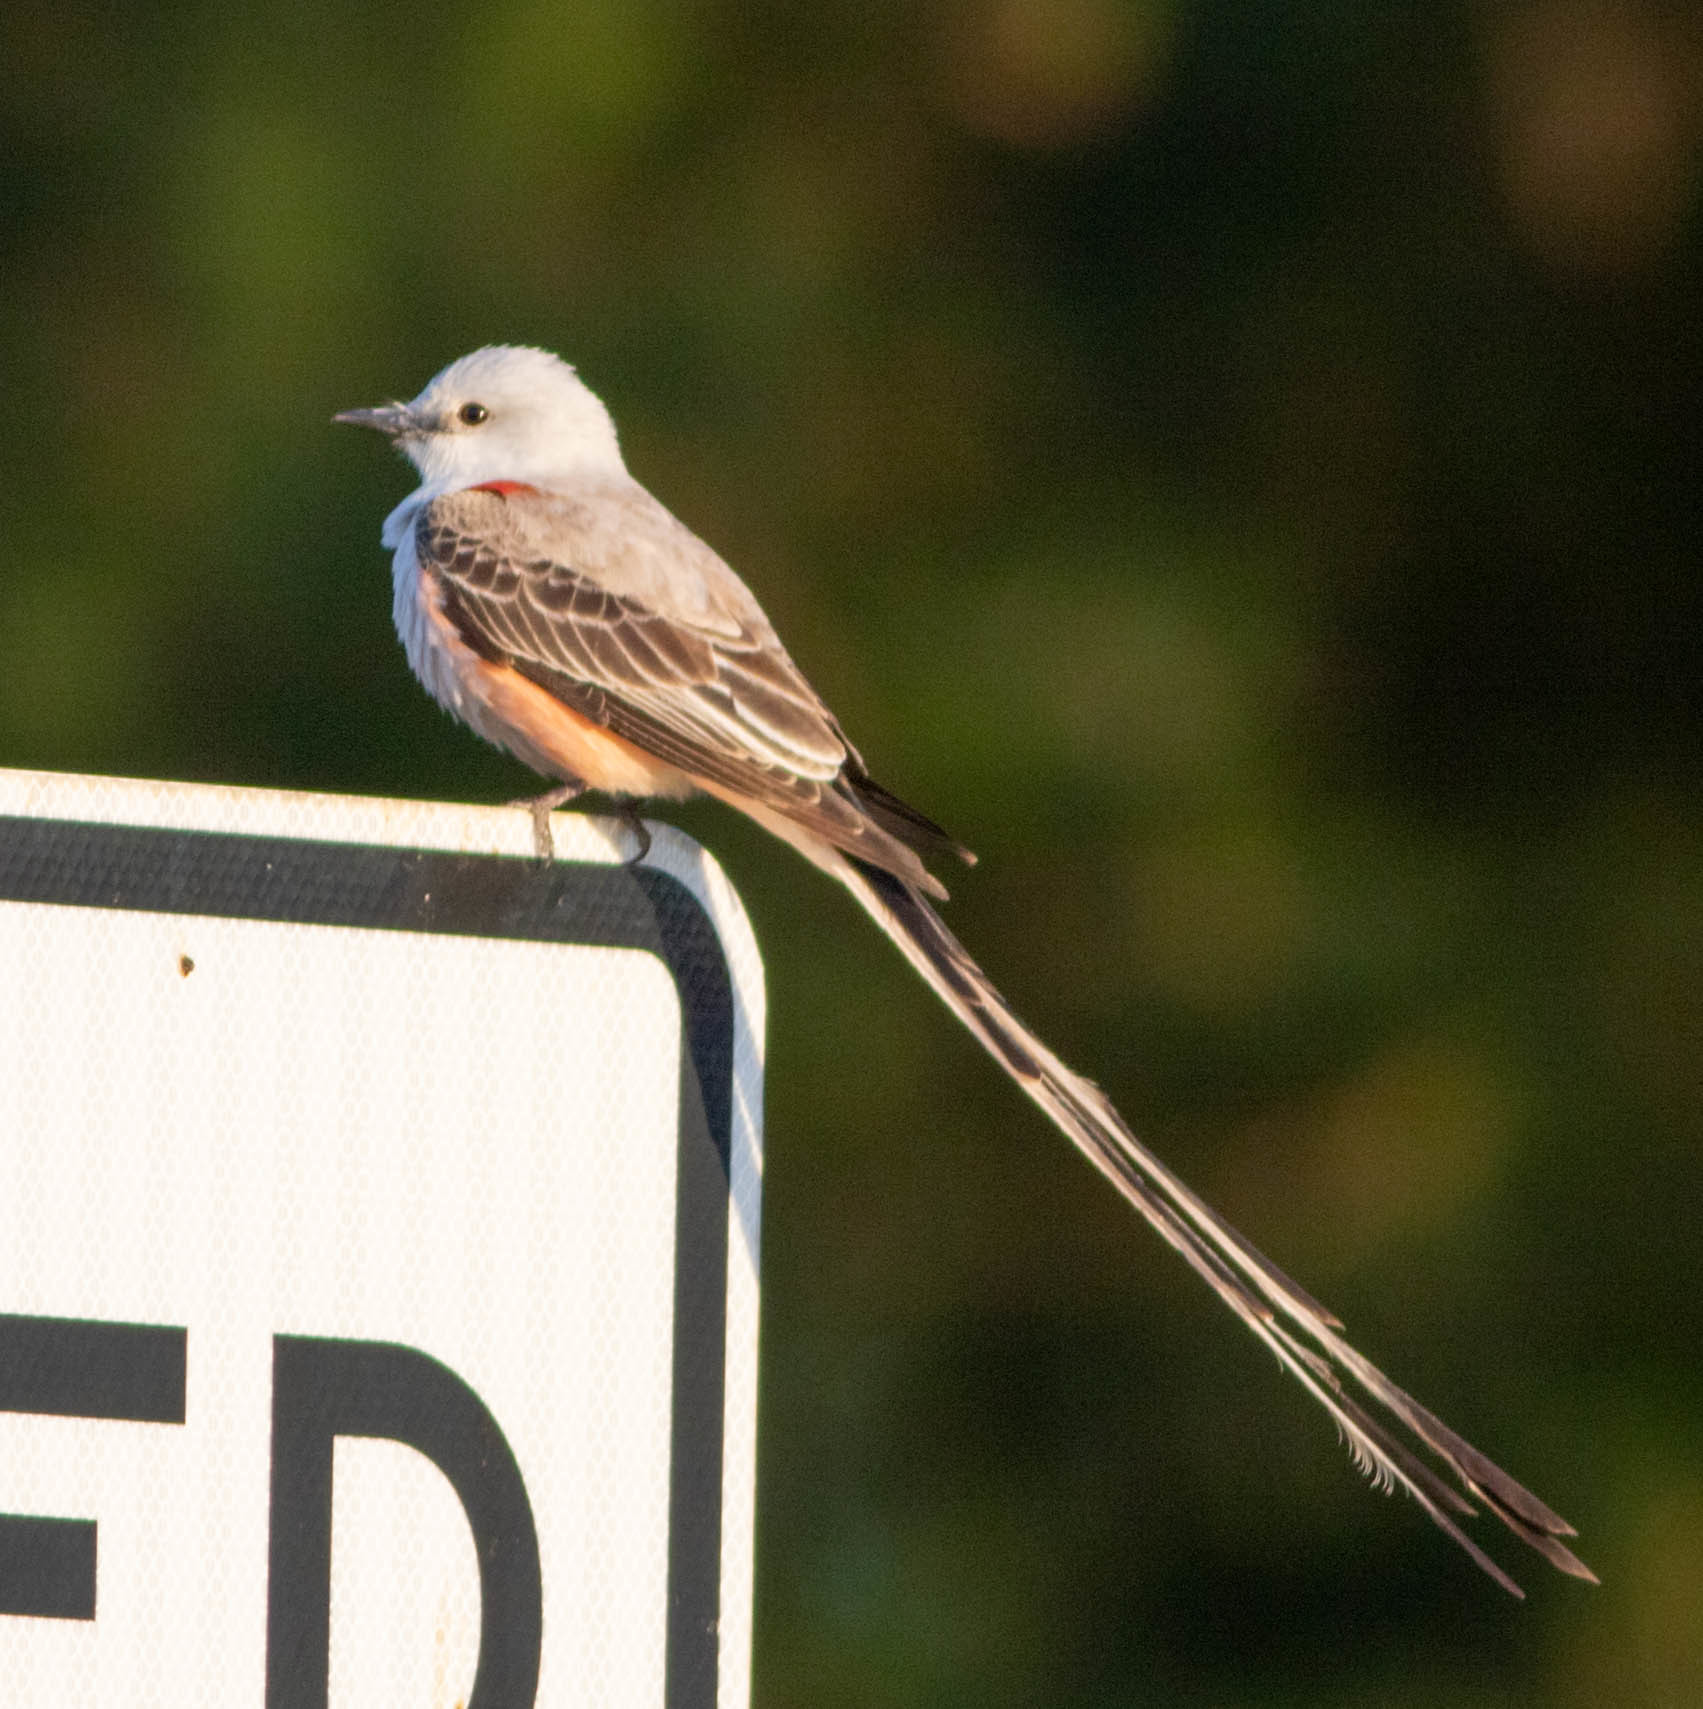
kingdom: Animalia
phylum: Chordata
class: Aves
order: Passeriformes
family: Tyrannidae
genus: Tyrannus
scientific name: Tyrannus forficatus
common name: Scissor-tailed flycatcher
